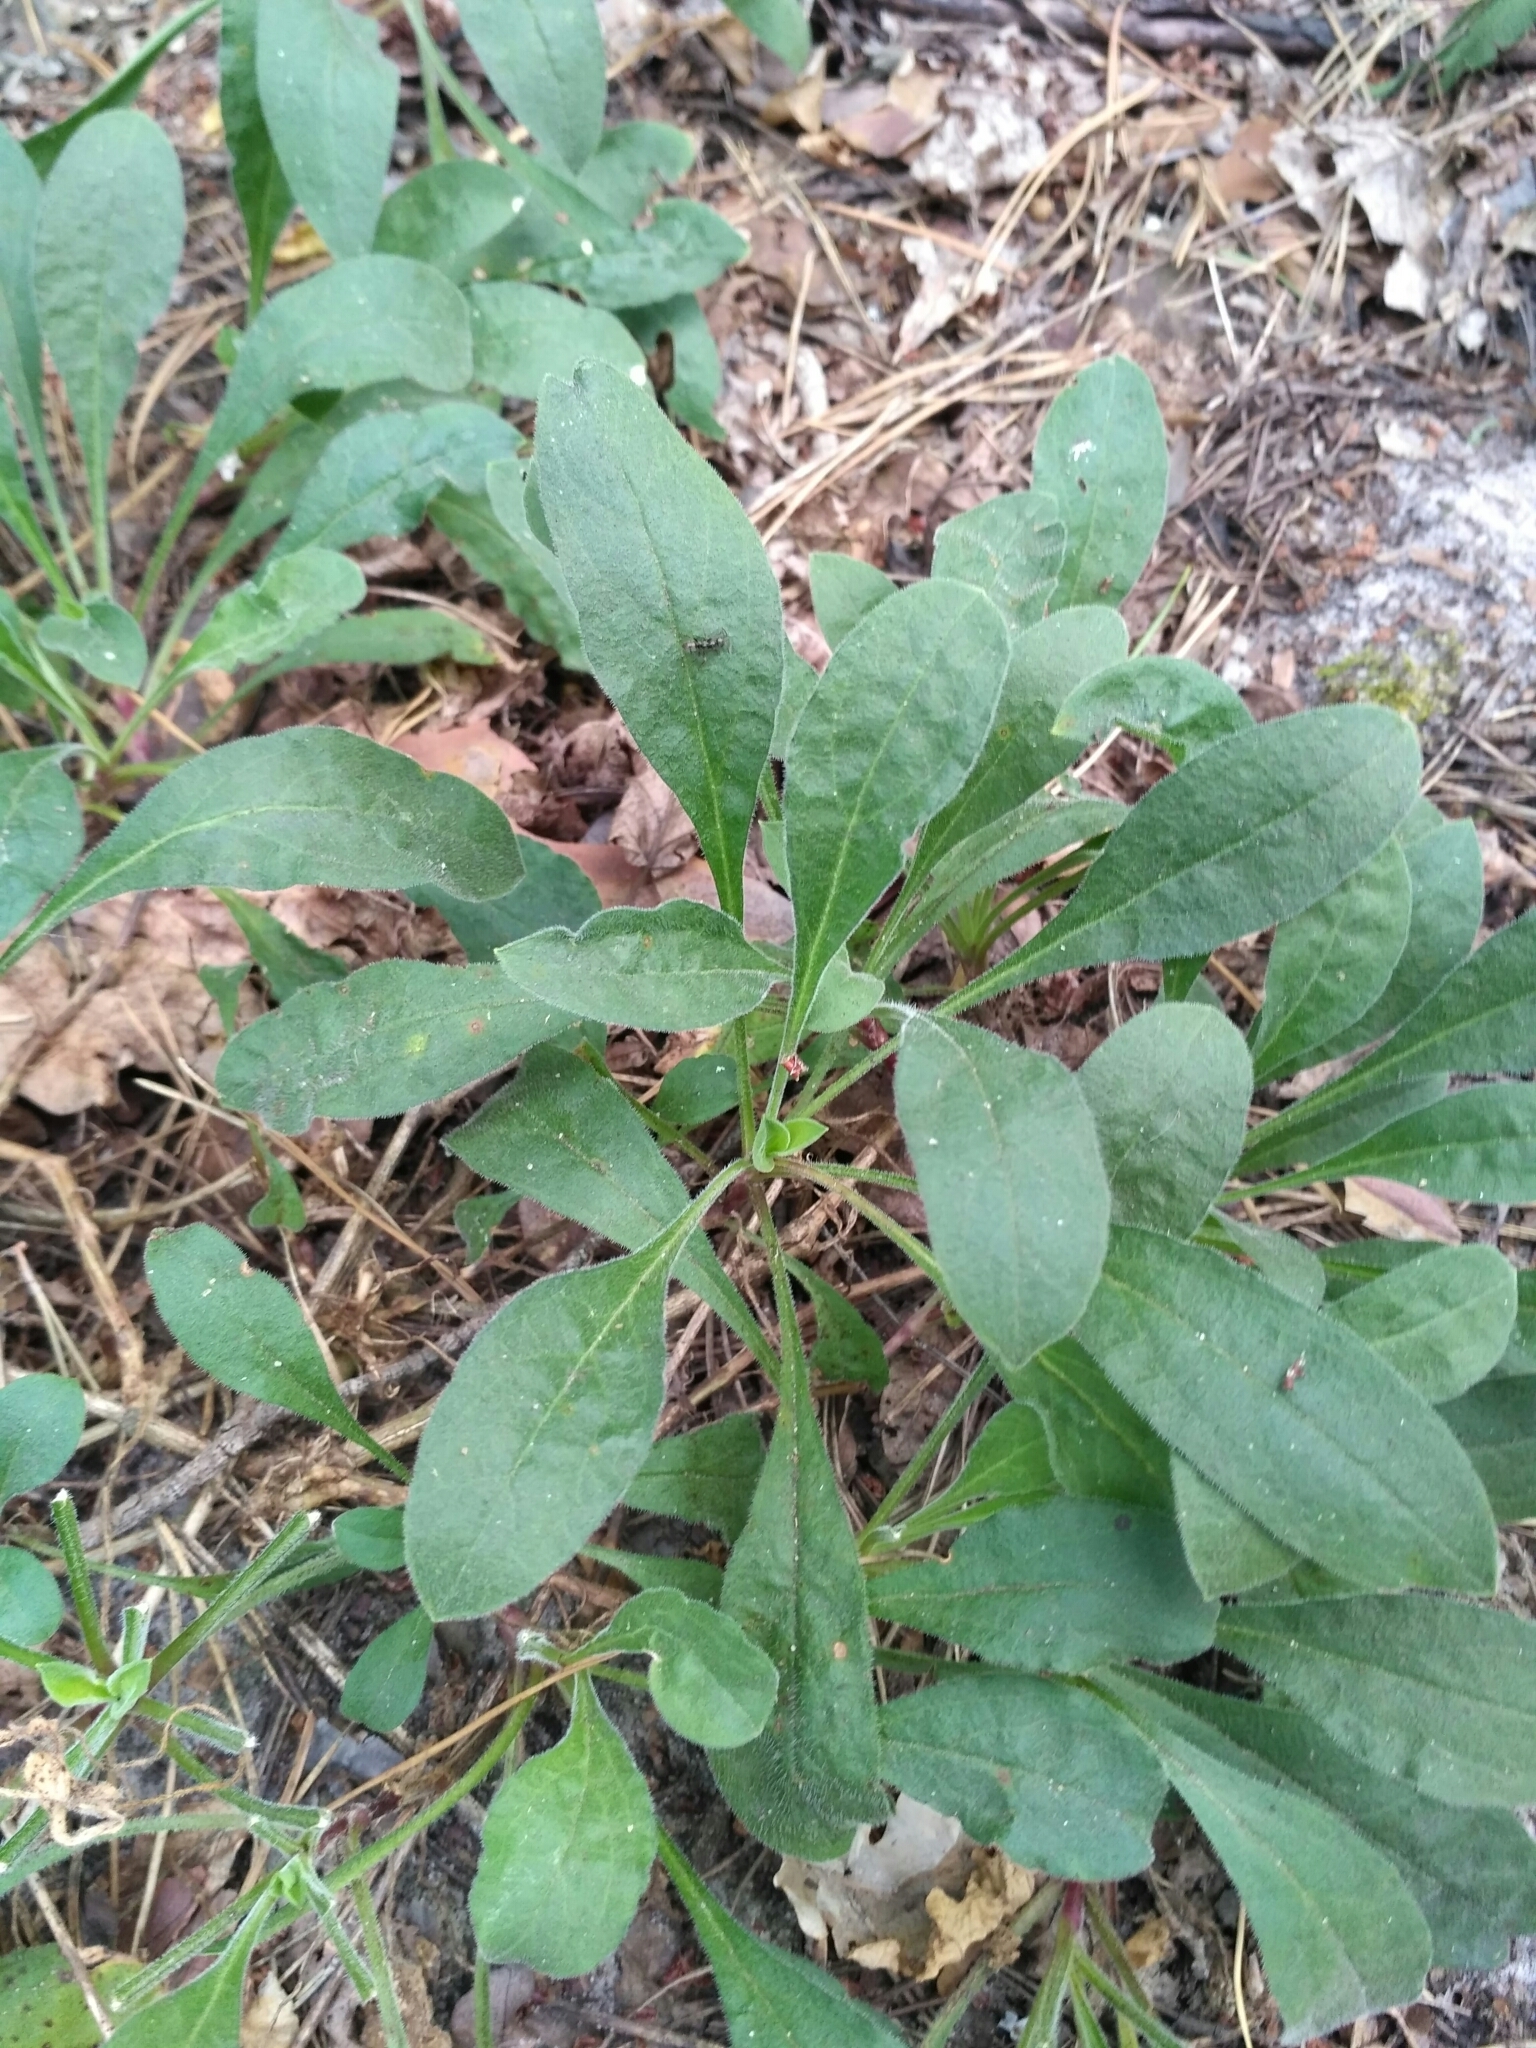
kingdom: Plantae
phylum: Tracheophyta
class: Magnoliopsida
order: Caryophyllales
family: Caryophyllaceae
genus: Silene
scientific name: Silene nutans
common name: Nottingham catchfly
